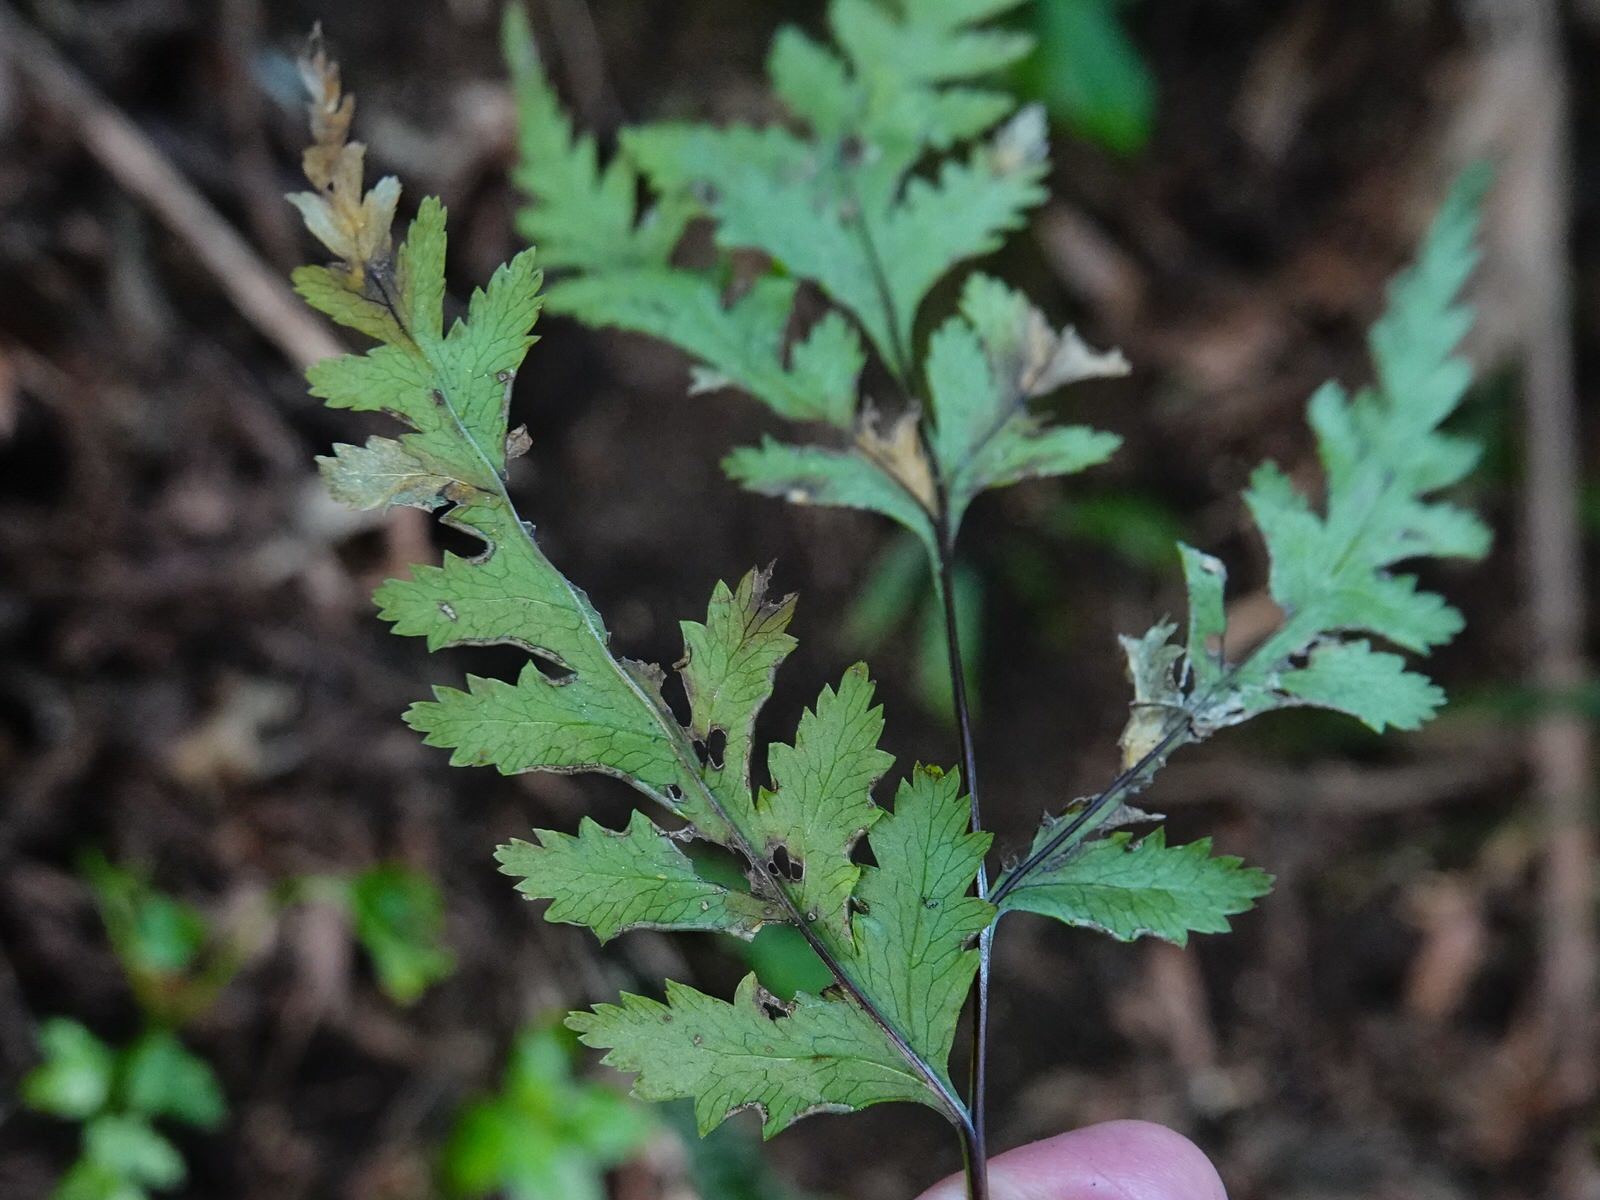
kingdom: Plantae
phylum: Tracheophyta
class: Polypodiopsida
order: Polypodiales
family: Pteridaceae
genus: Pteris
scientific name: Pteris macilenta
